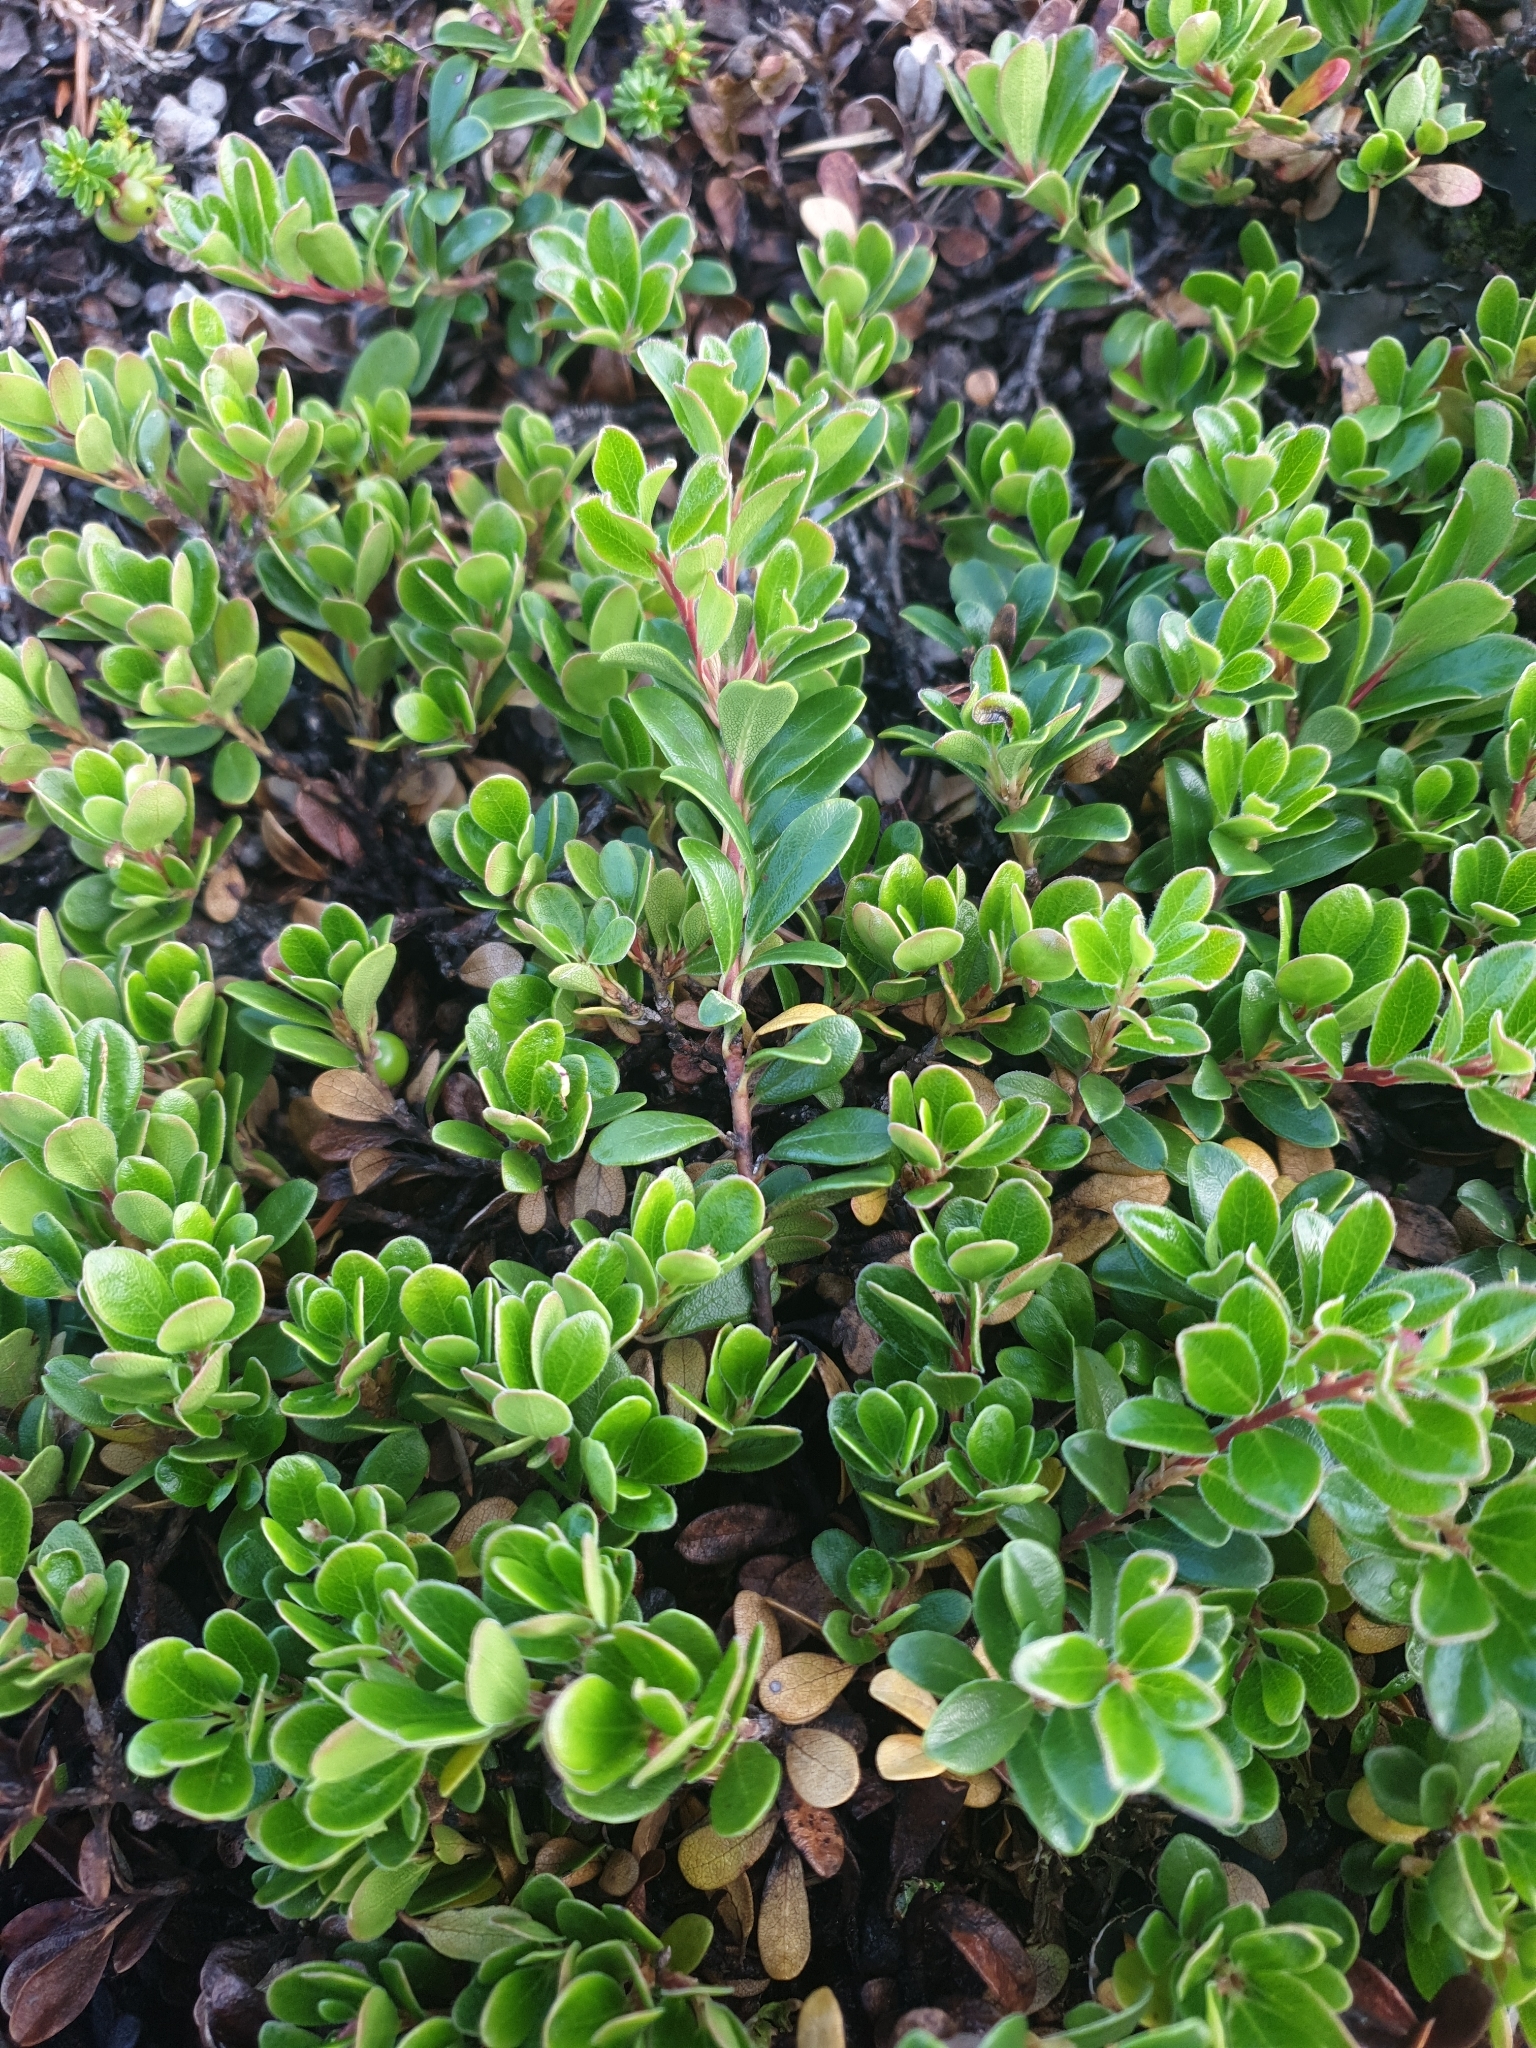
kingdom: Plantae
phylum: Tracheophyta
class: Magnoliopsida
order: Ericales
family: Ericaceae
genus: Arctostaphylos
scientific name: Arctostaphylos uva-ursi
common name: Bearberry
